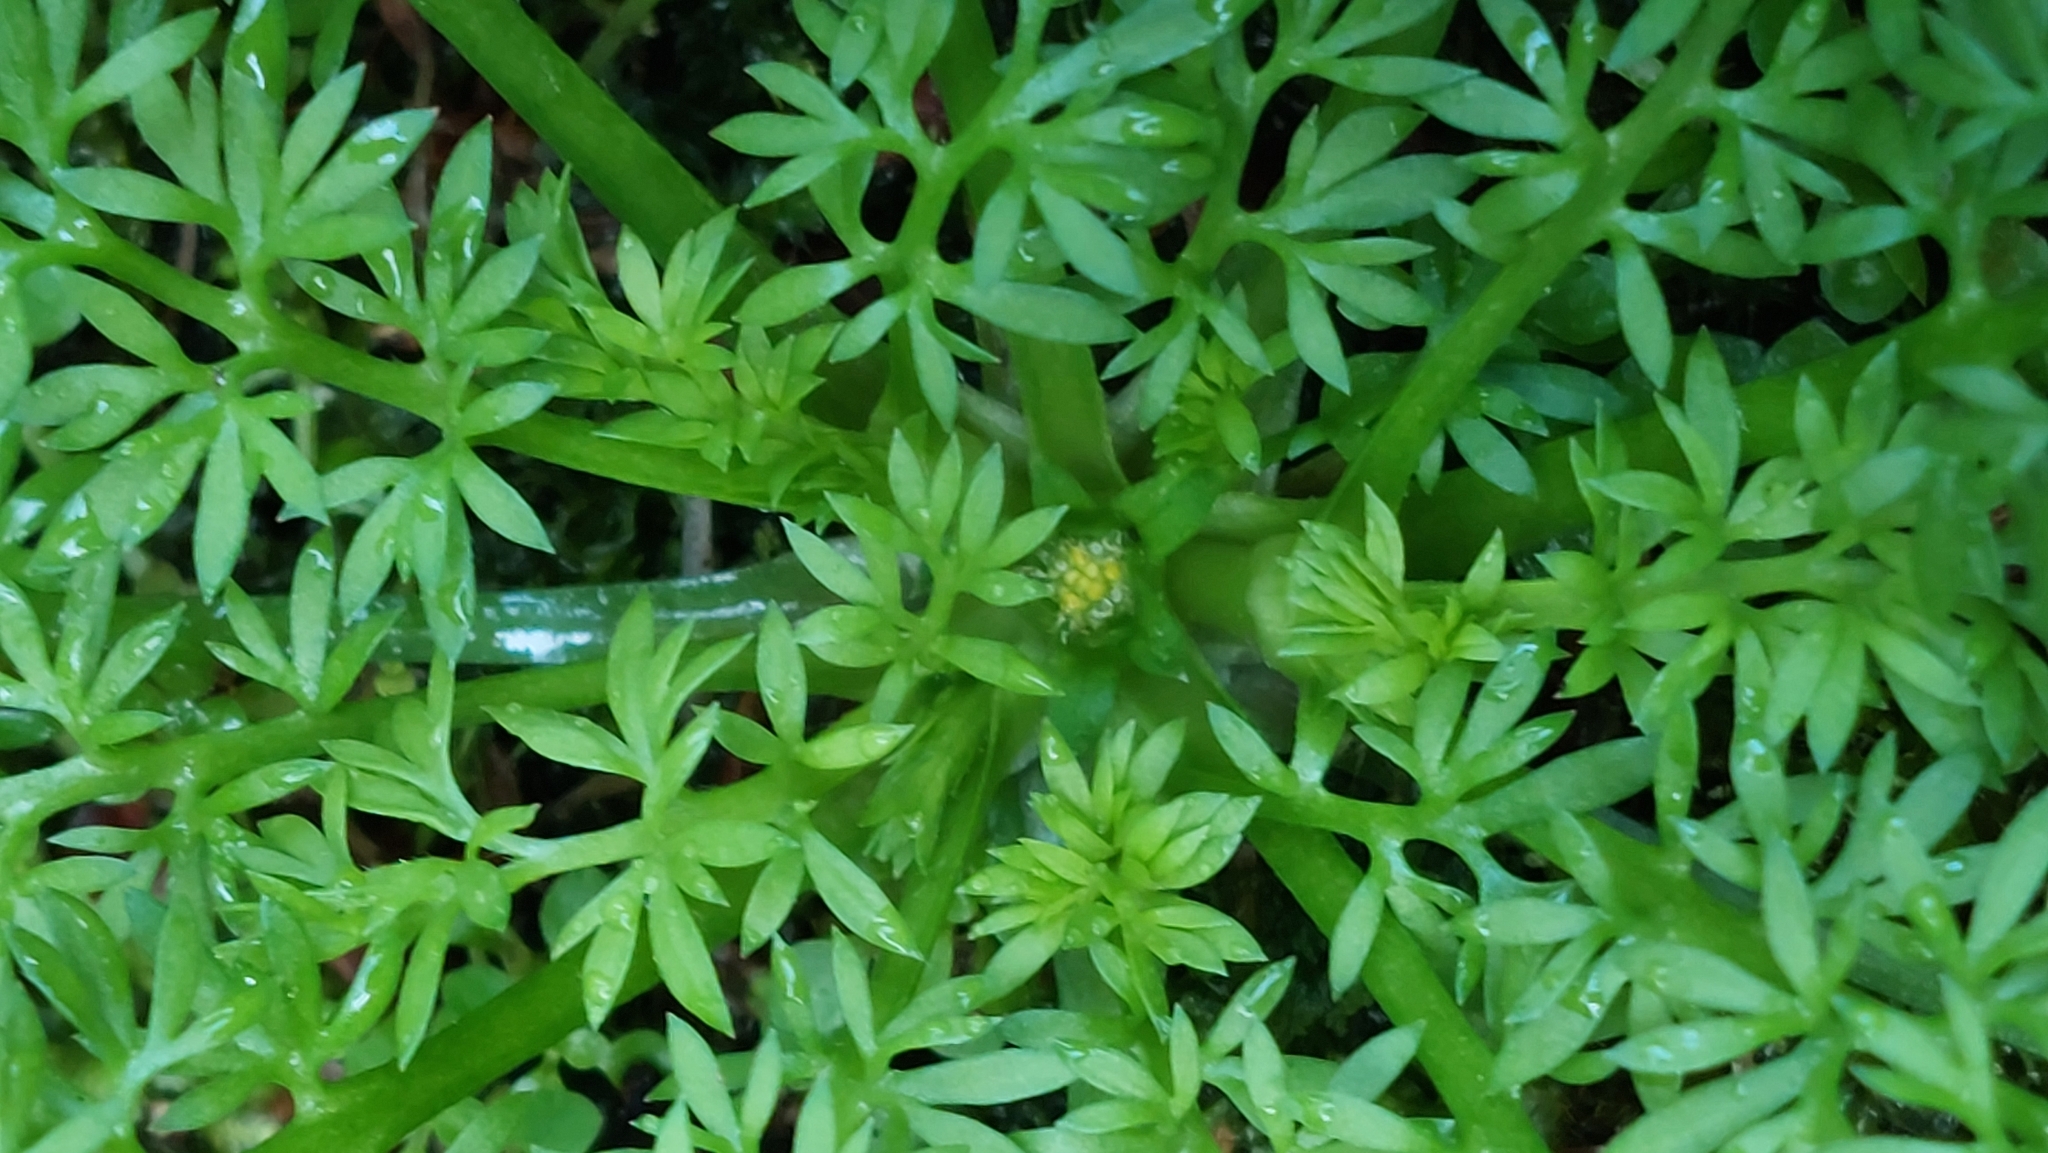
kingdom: Plantae
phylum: Tracheophyta
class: Magnoliopsida
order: Asterales
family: Asteraceae
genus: Soliva
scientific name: Soliva anthemifolia
